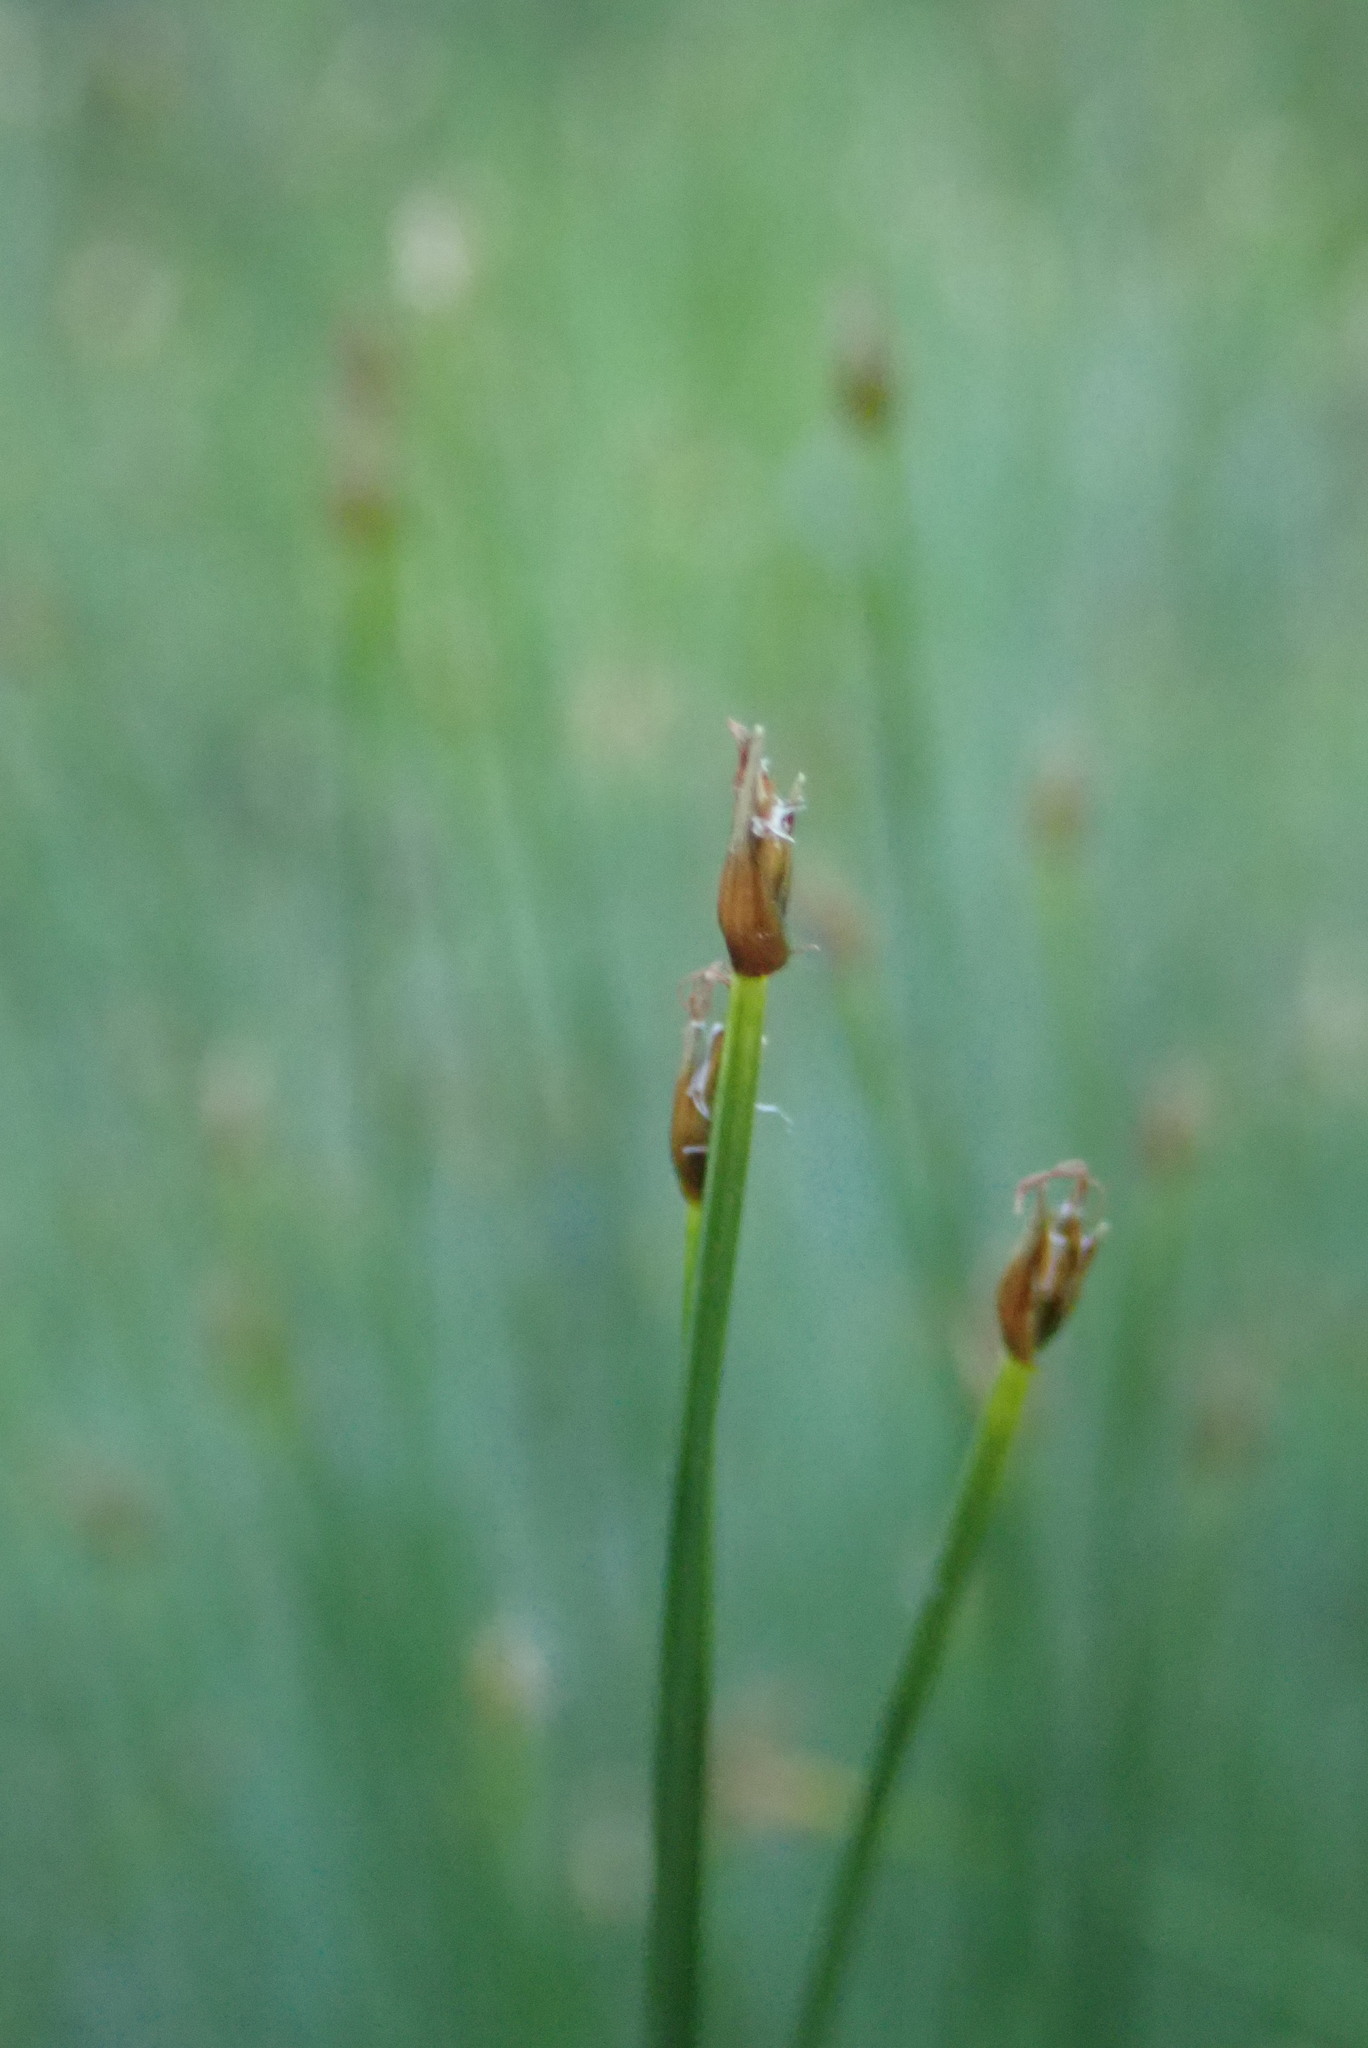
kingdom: Plantae
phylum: Tracheophyta
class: Liliopsida
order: Poales
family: Cyperaceae
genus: Trichophorum
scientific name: Trichophorum cespitosum
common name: Cespitose bulrush
